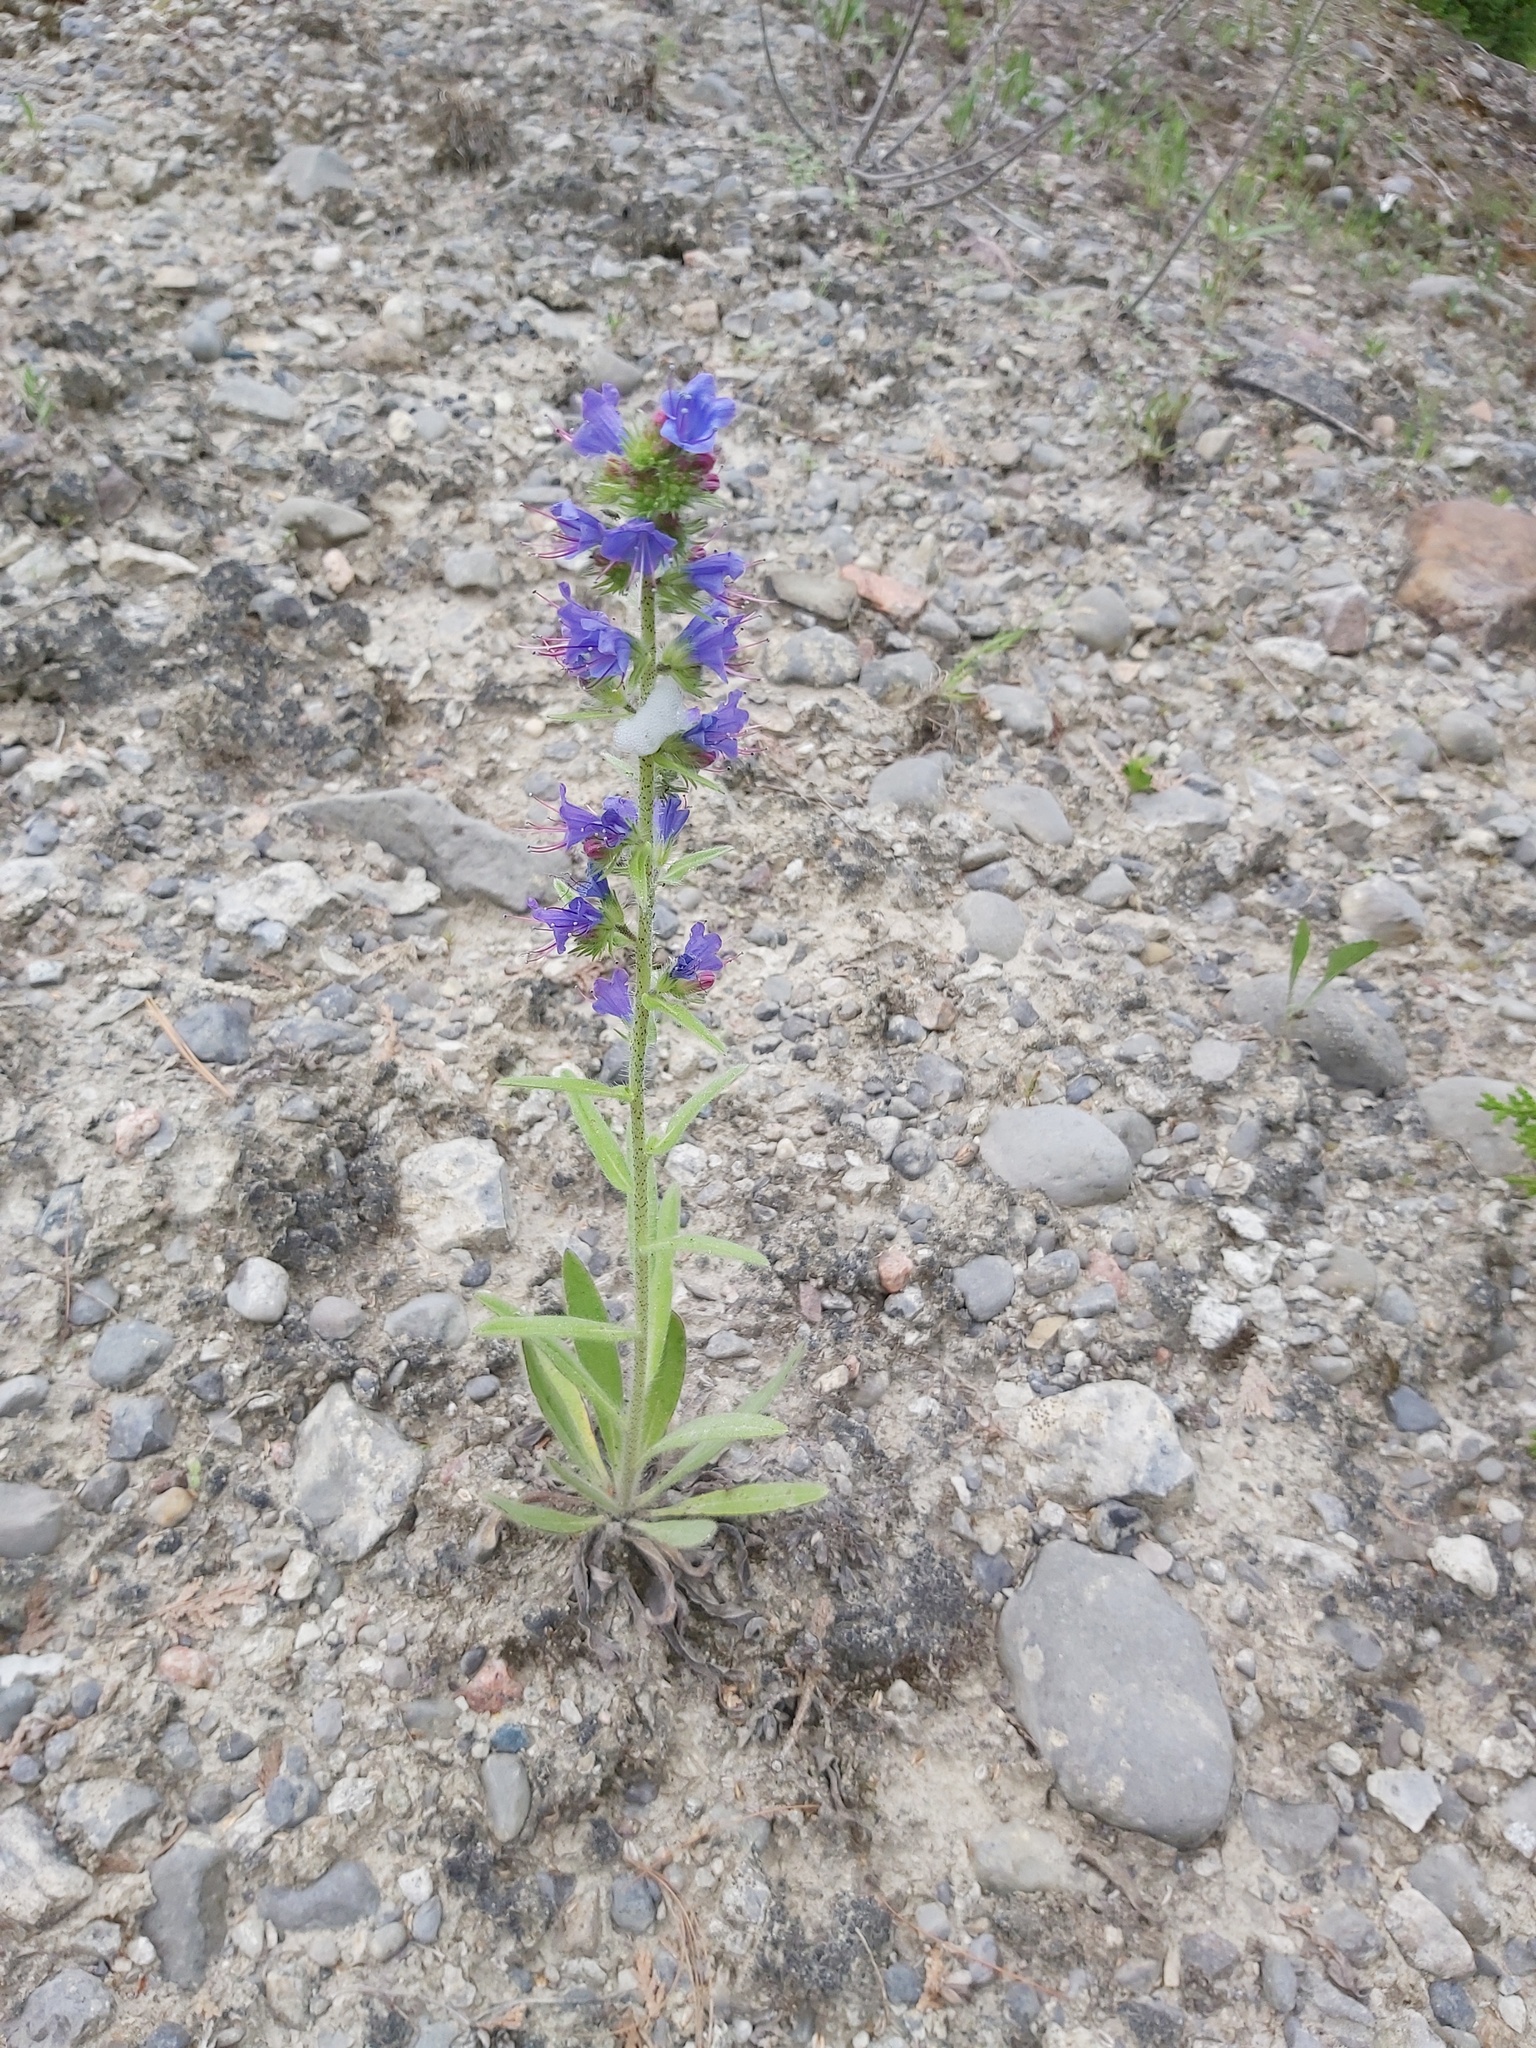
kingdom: Plantae
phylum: Tracheophyta
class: Magnoliopsida
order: Boraginales
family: Boraginaceae
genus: Echium
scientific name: Echium vulgare
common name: Common viper's bugloss
